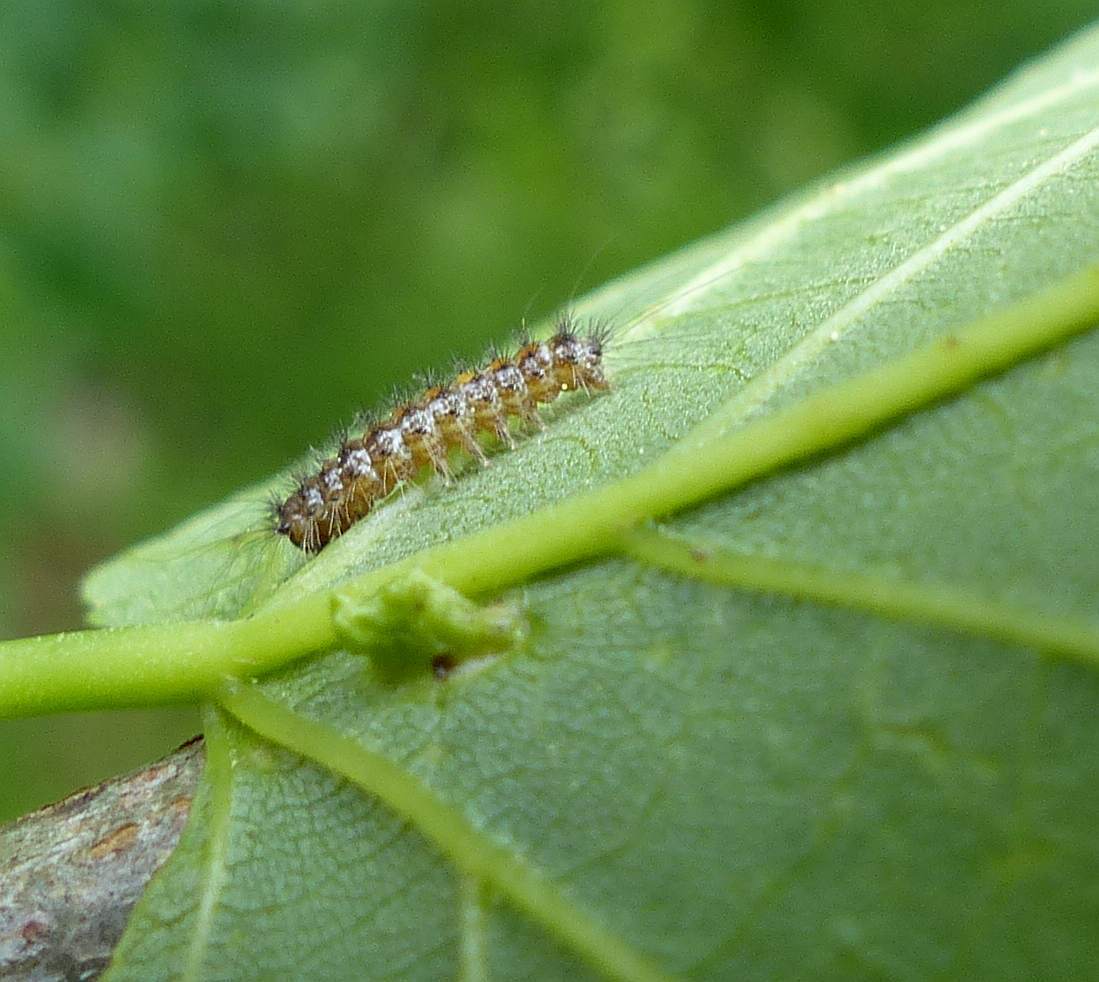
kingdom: Animalia
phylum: Arthropoda
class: Insecta
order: Lepidoptera
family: Erebidae
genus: Lymantria
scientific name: Lymantria dispar
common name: Gypsy moth
